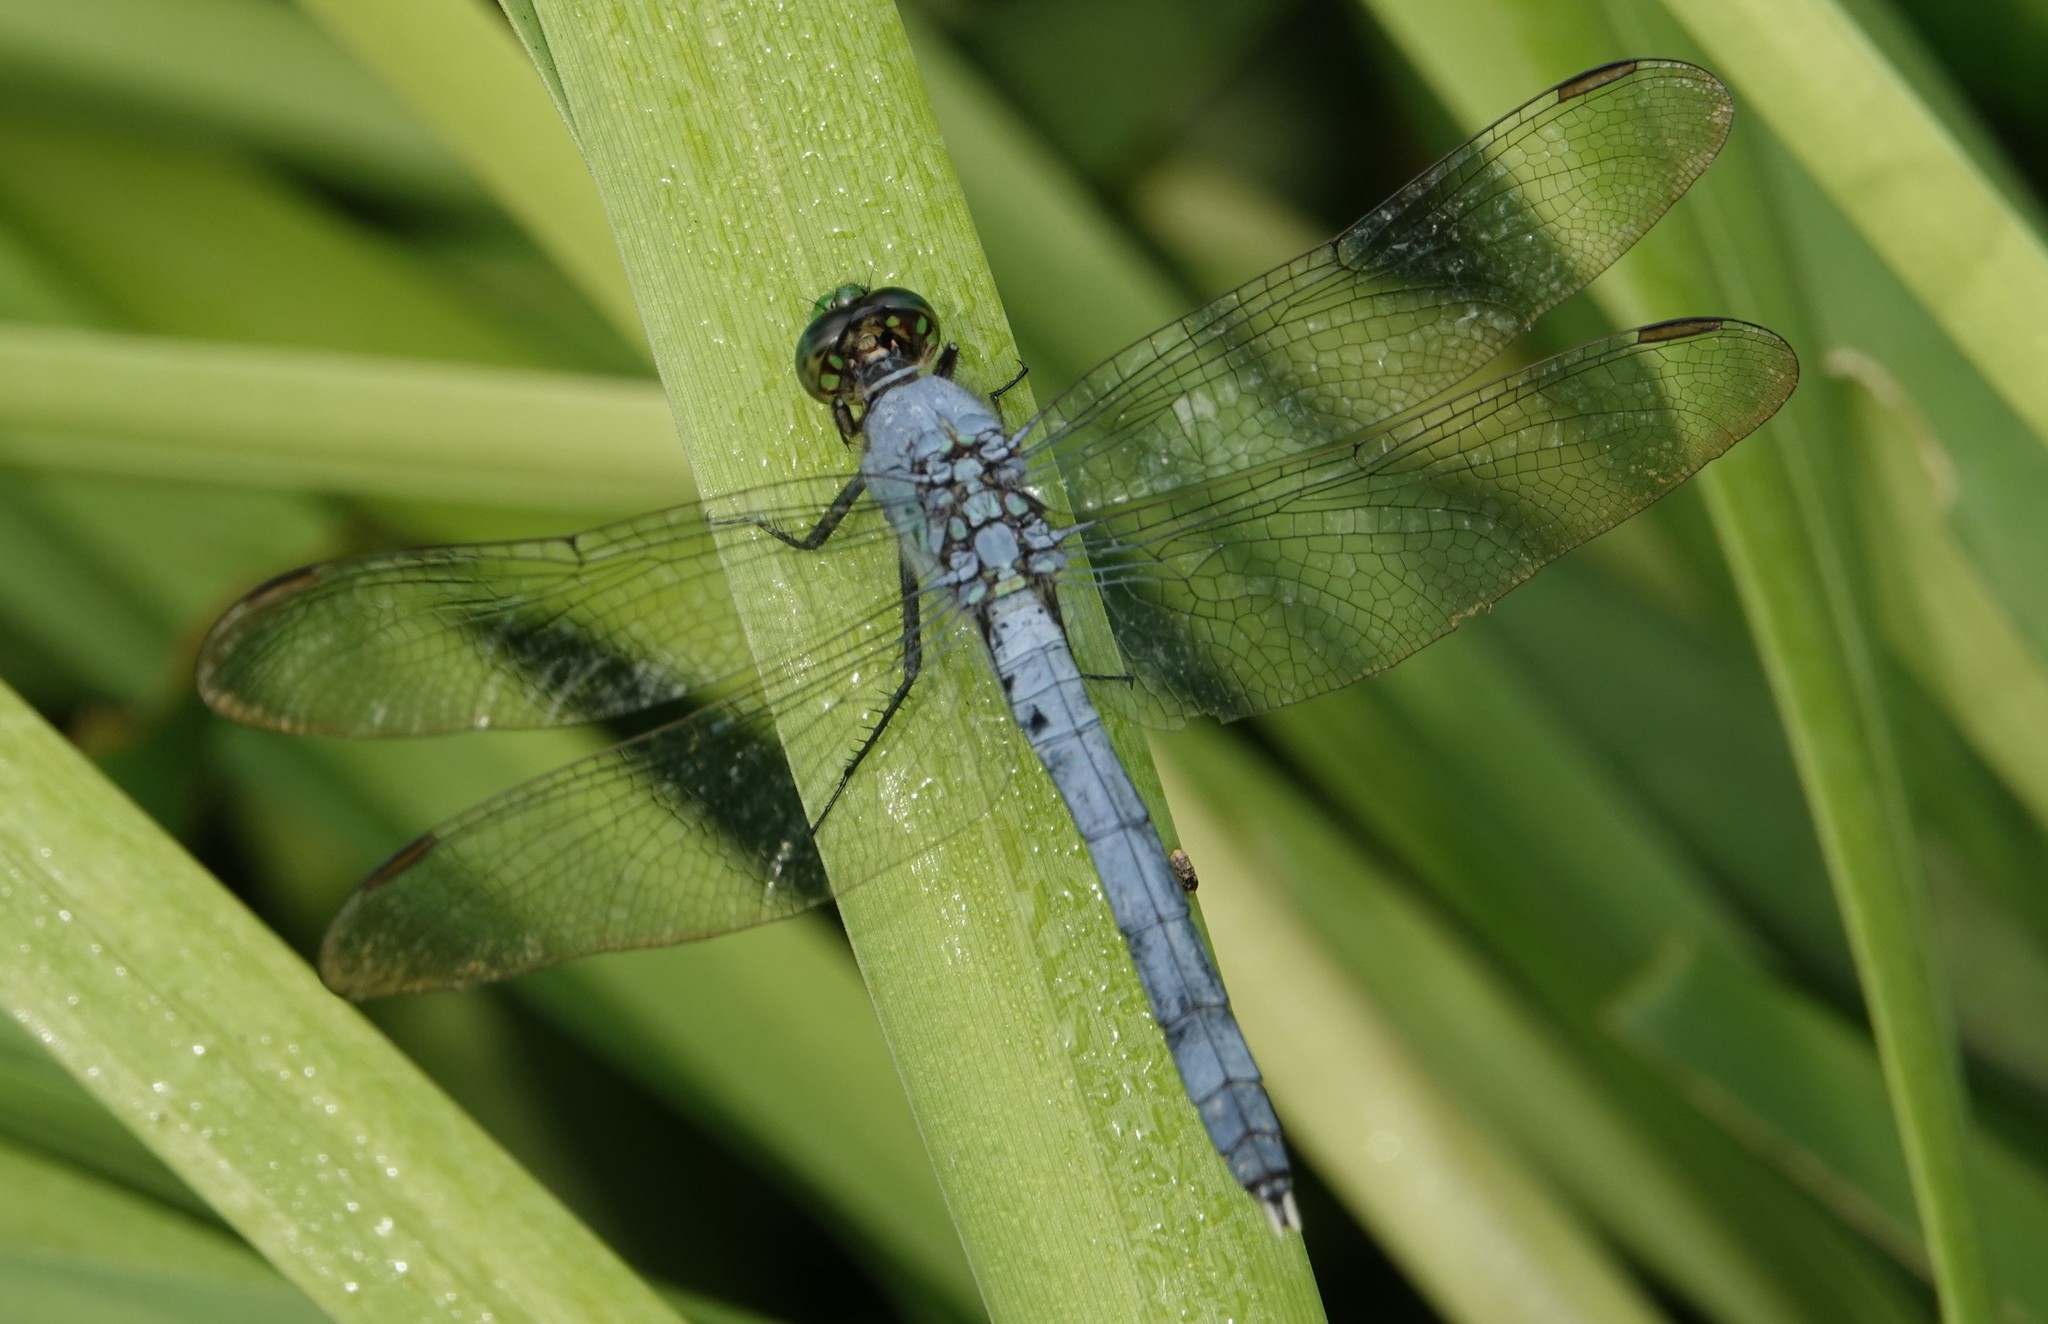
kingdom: Animalia
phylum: Arthropoda
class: Insecta
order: Odonata
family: Libellulidae
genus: Erythemis
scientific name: Erythemis simplicicollis
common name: Eastern pondhawk
